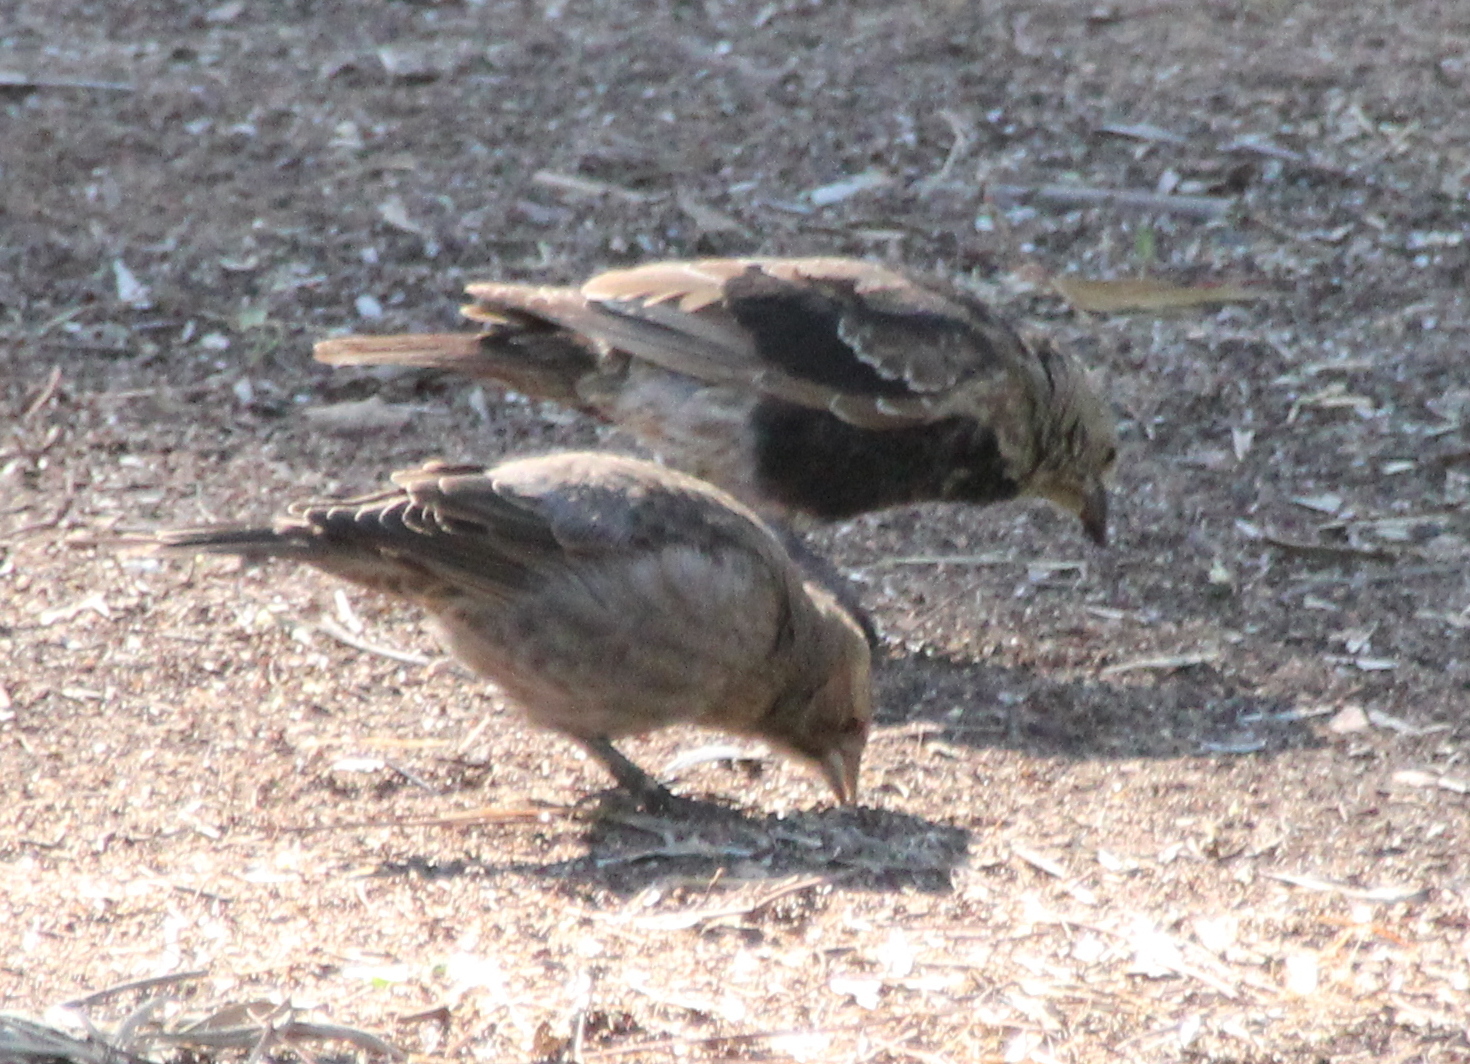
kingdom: Animalia
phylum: Chordata
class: Aves
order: Passeriformes
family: Icteridae
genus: Molothrus
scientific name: Molothrus ater
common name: Brown-headed cowbird
